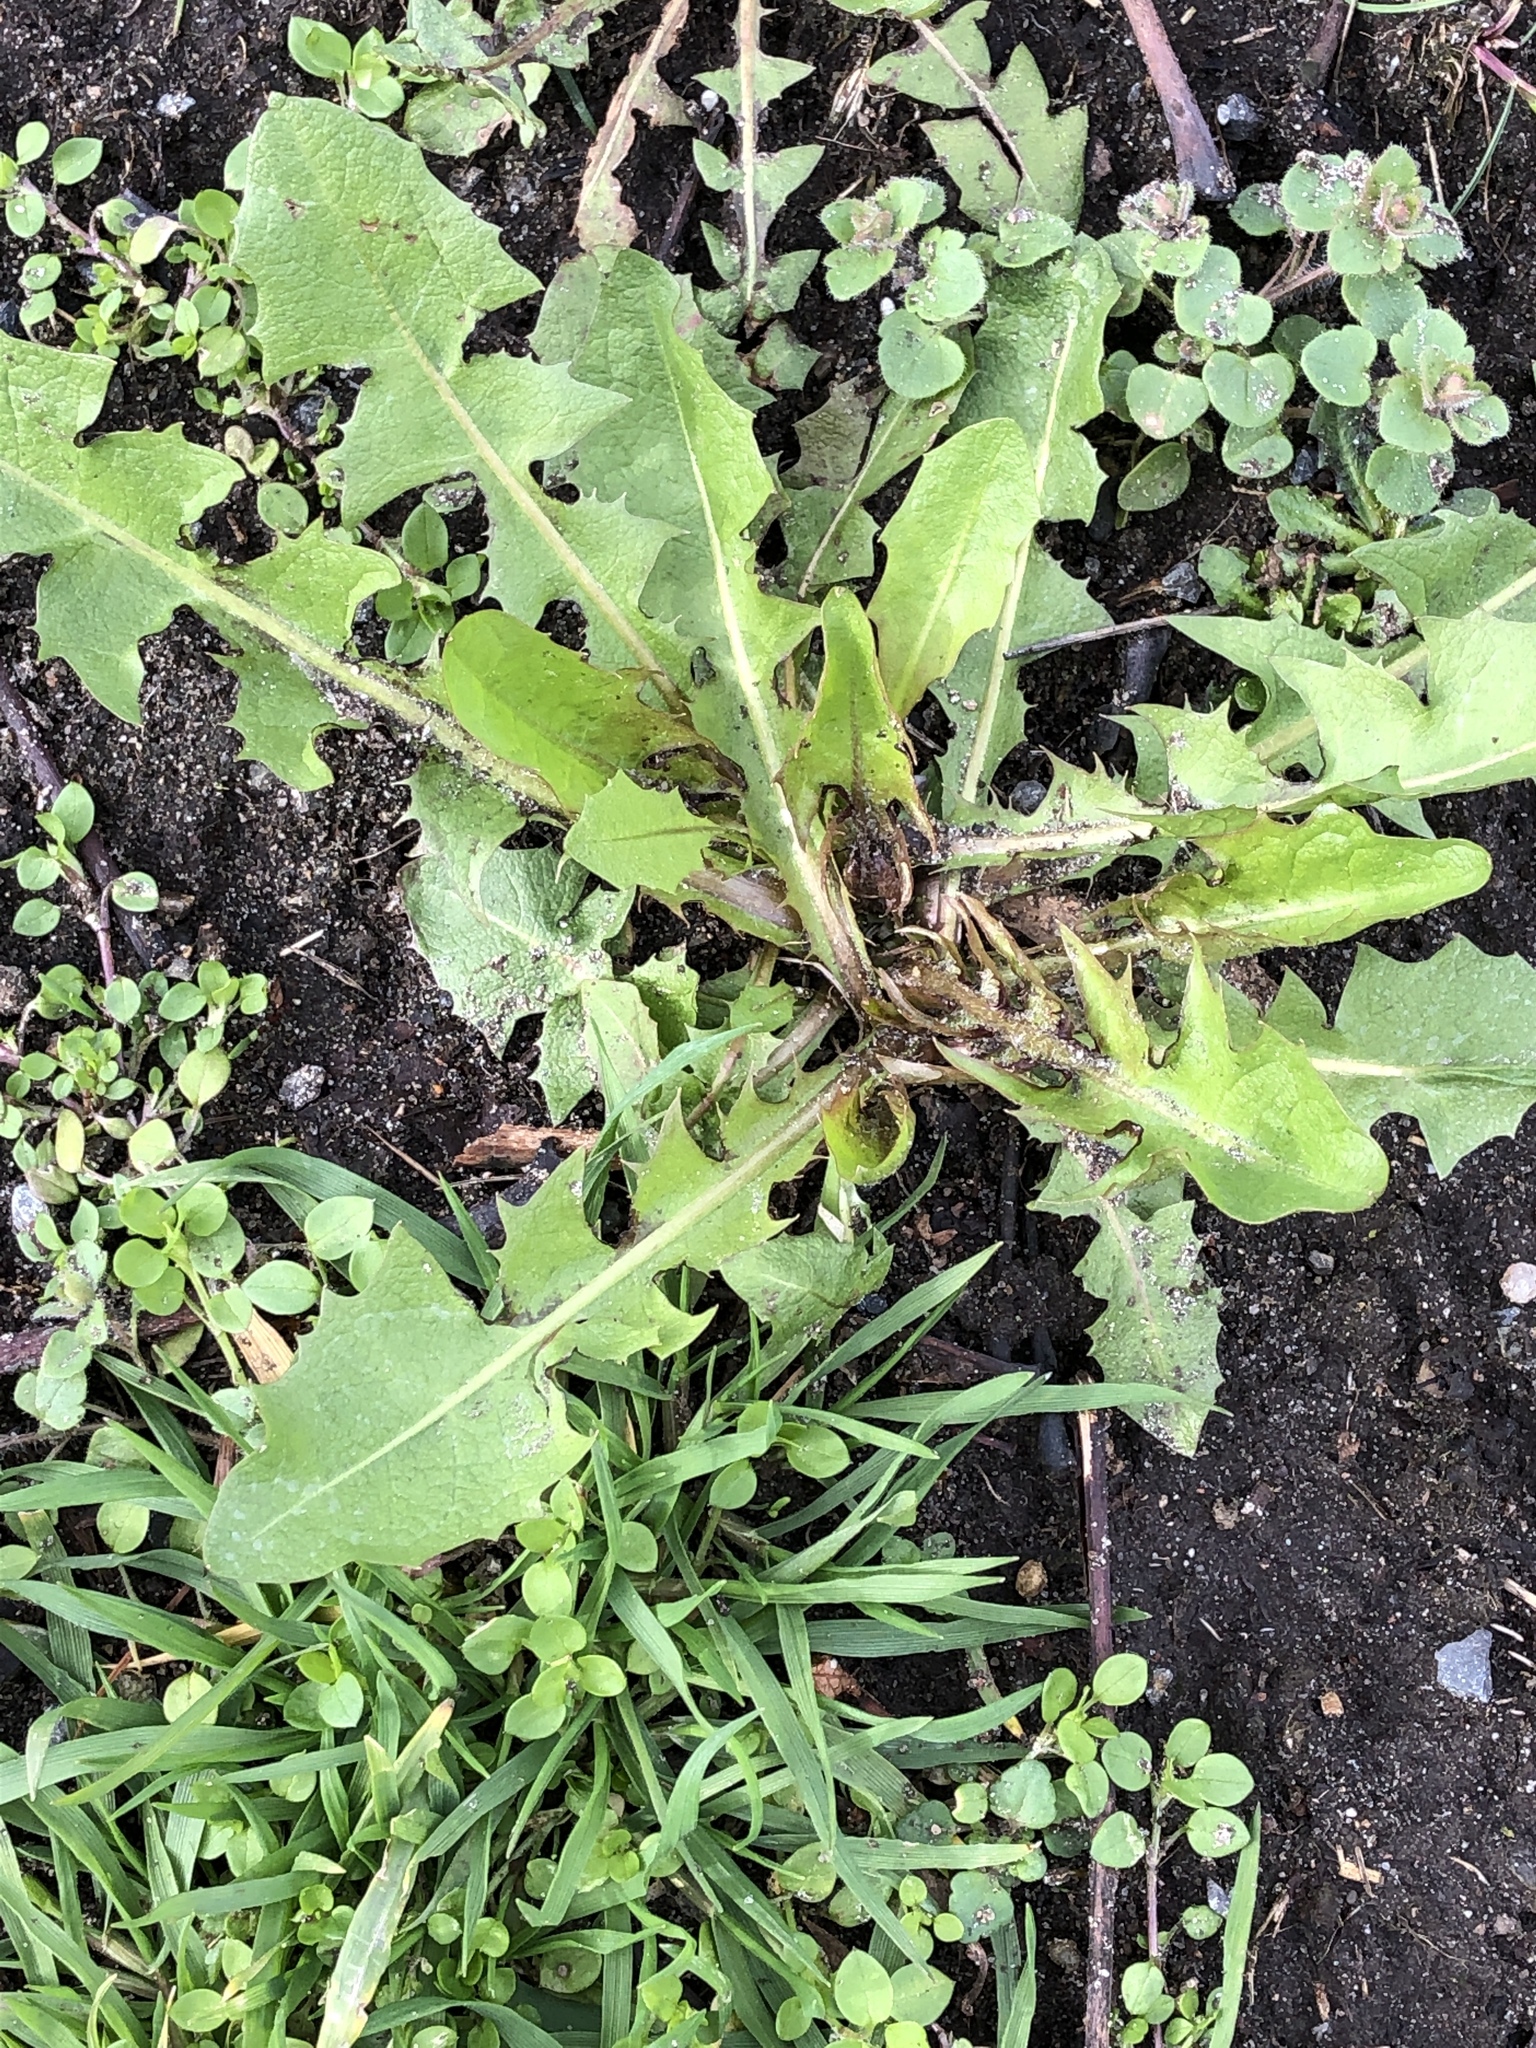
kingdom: Plantae
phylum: Tracheophyta
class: Magnoliopsida
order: Asterales
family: Asteraceae
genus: Taraxacum
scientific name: Taraxacum officinale
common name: Common dandelion
